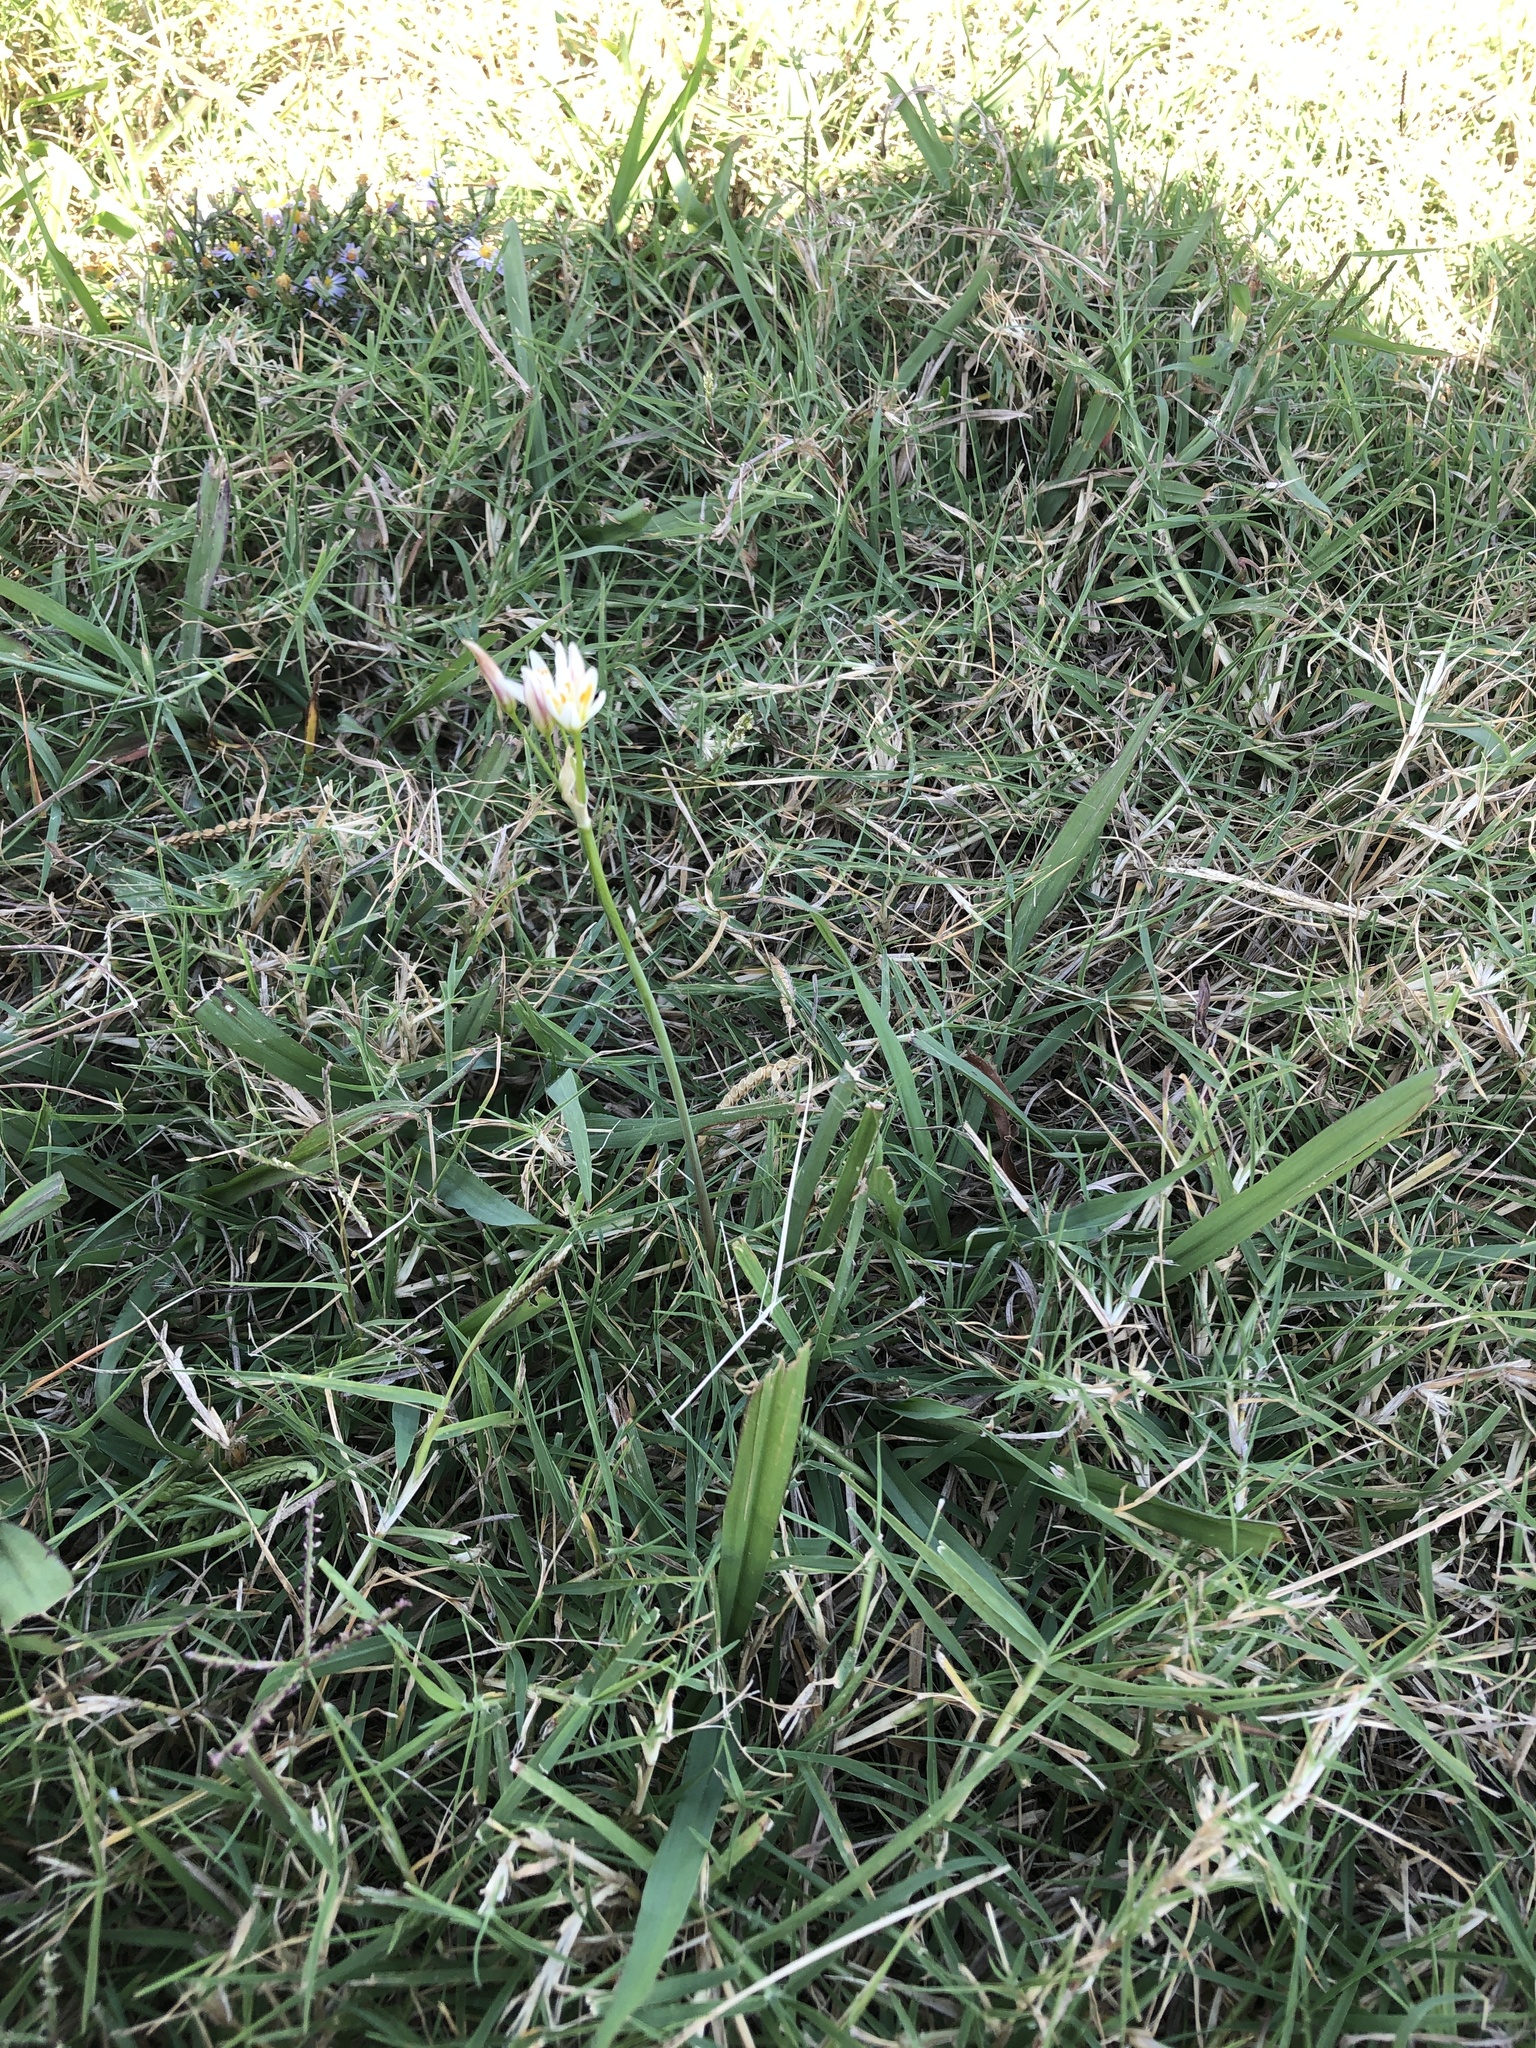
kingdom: Plantae
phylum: Tracheophyta
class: Liliopsida
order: Asparagales
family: Amaryllidaceae
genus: Nothoscordum
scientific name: Nothoscordum bivalve
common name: Crow-poison
